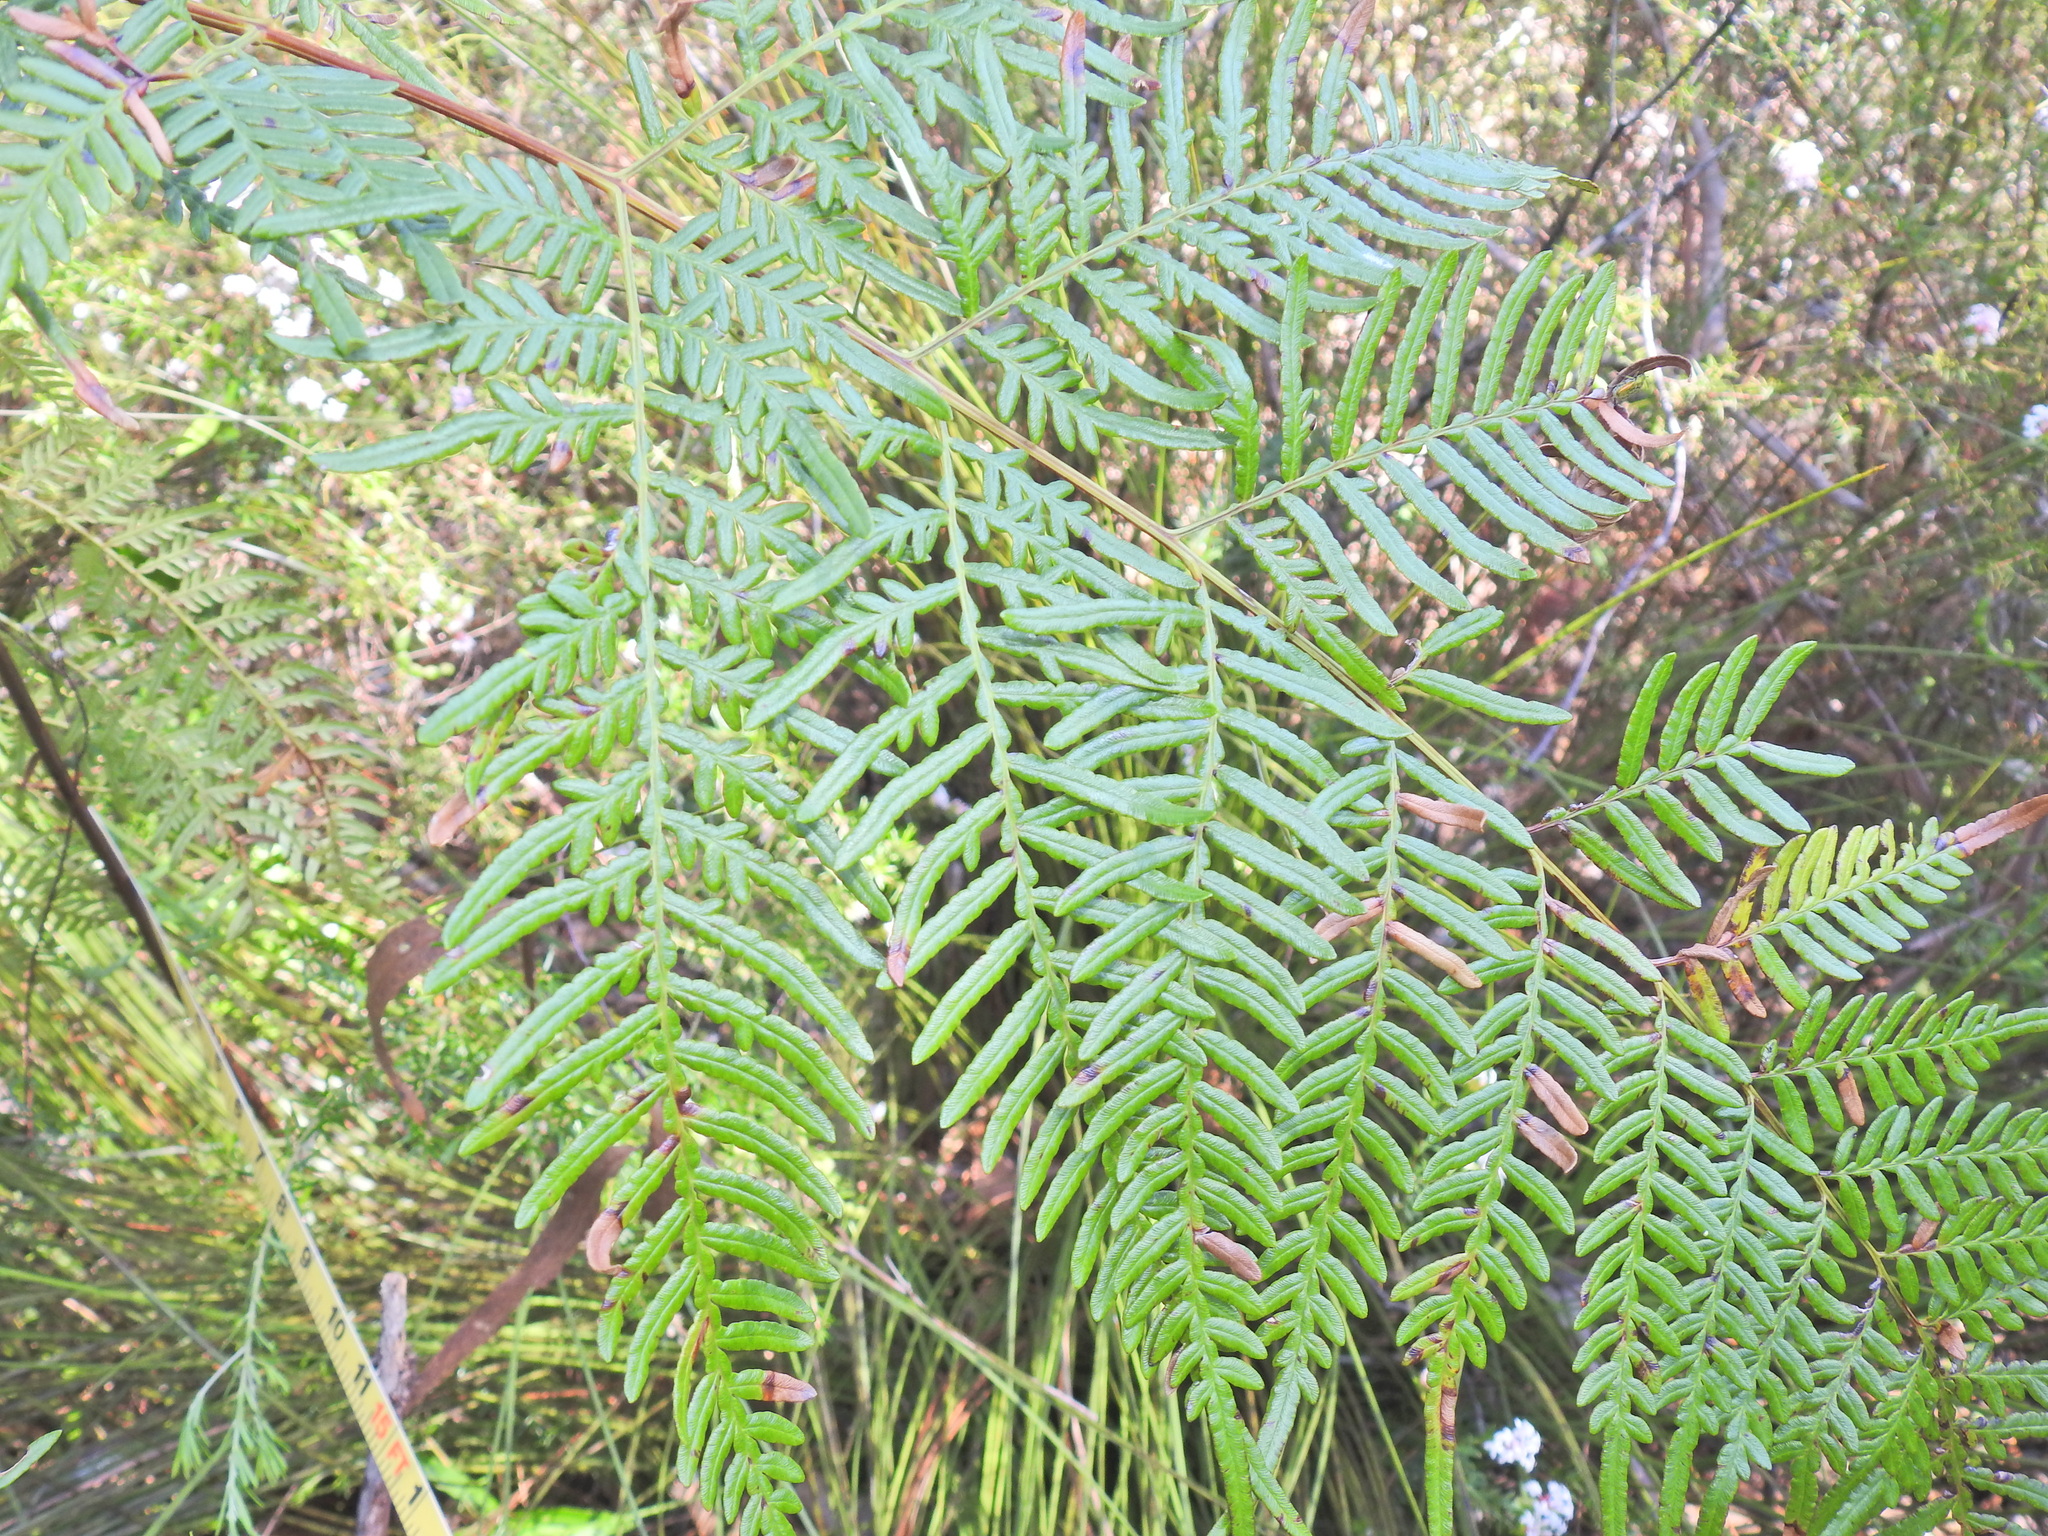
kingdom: Plantae
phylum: Tracheophyta
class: Polypodiopsida
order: Polypodiales
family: Dennstaedtiaceae
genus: Pteridium
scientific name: Pteridium esculentum
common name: Bracken fern
